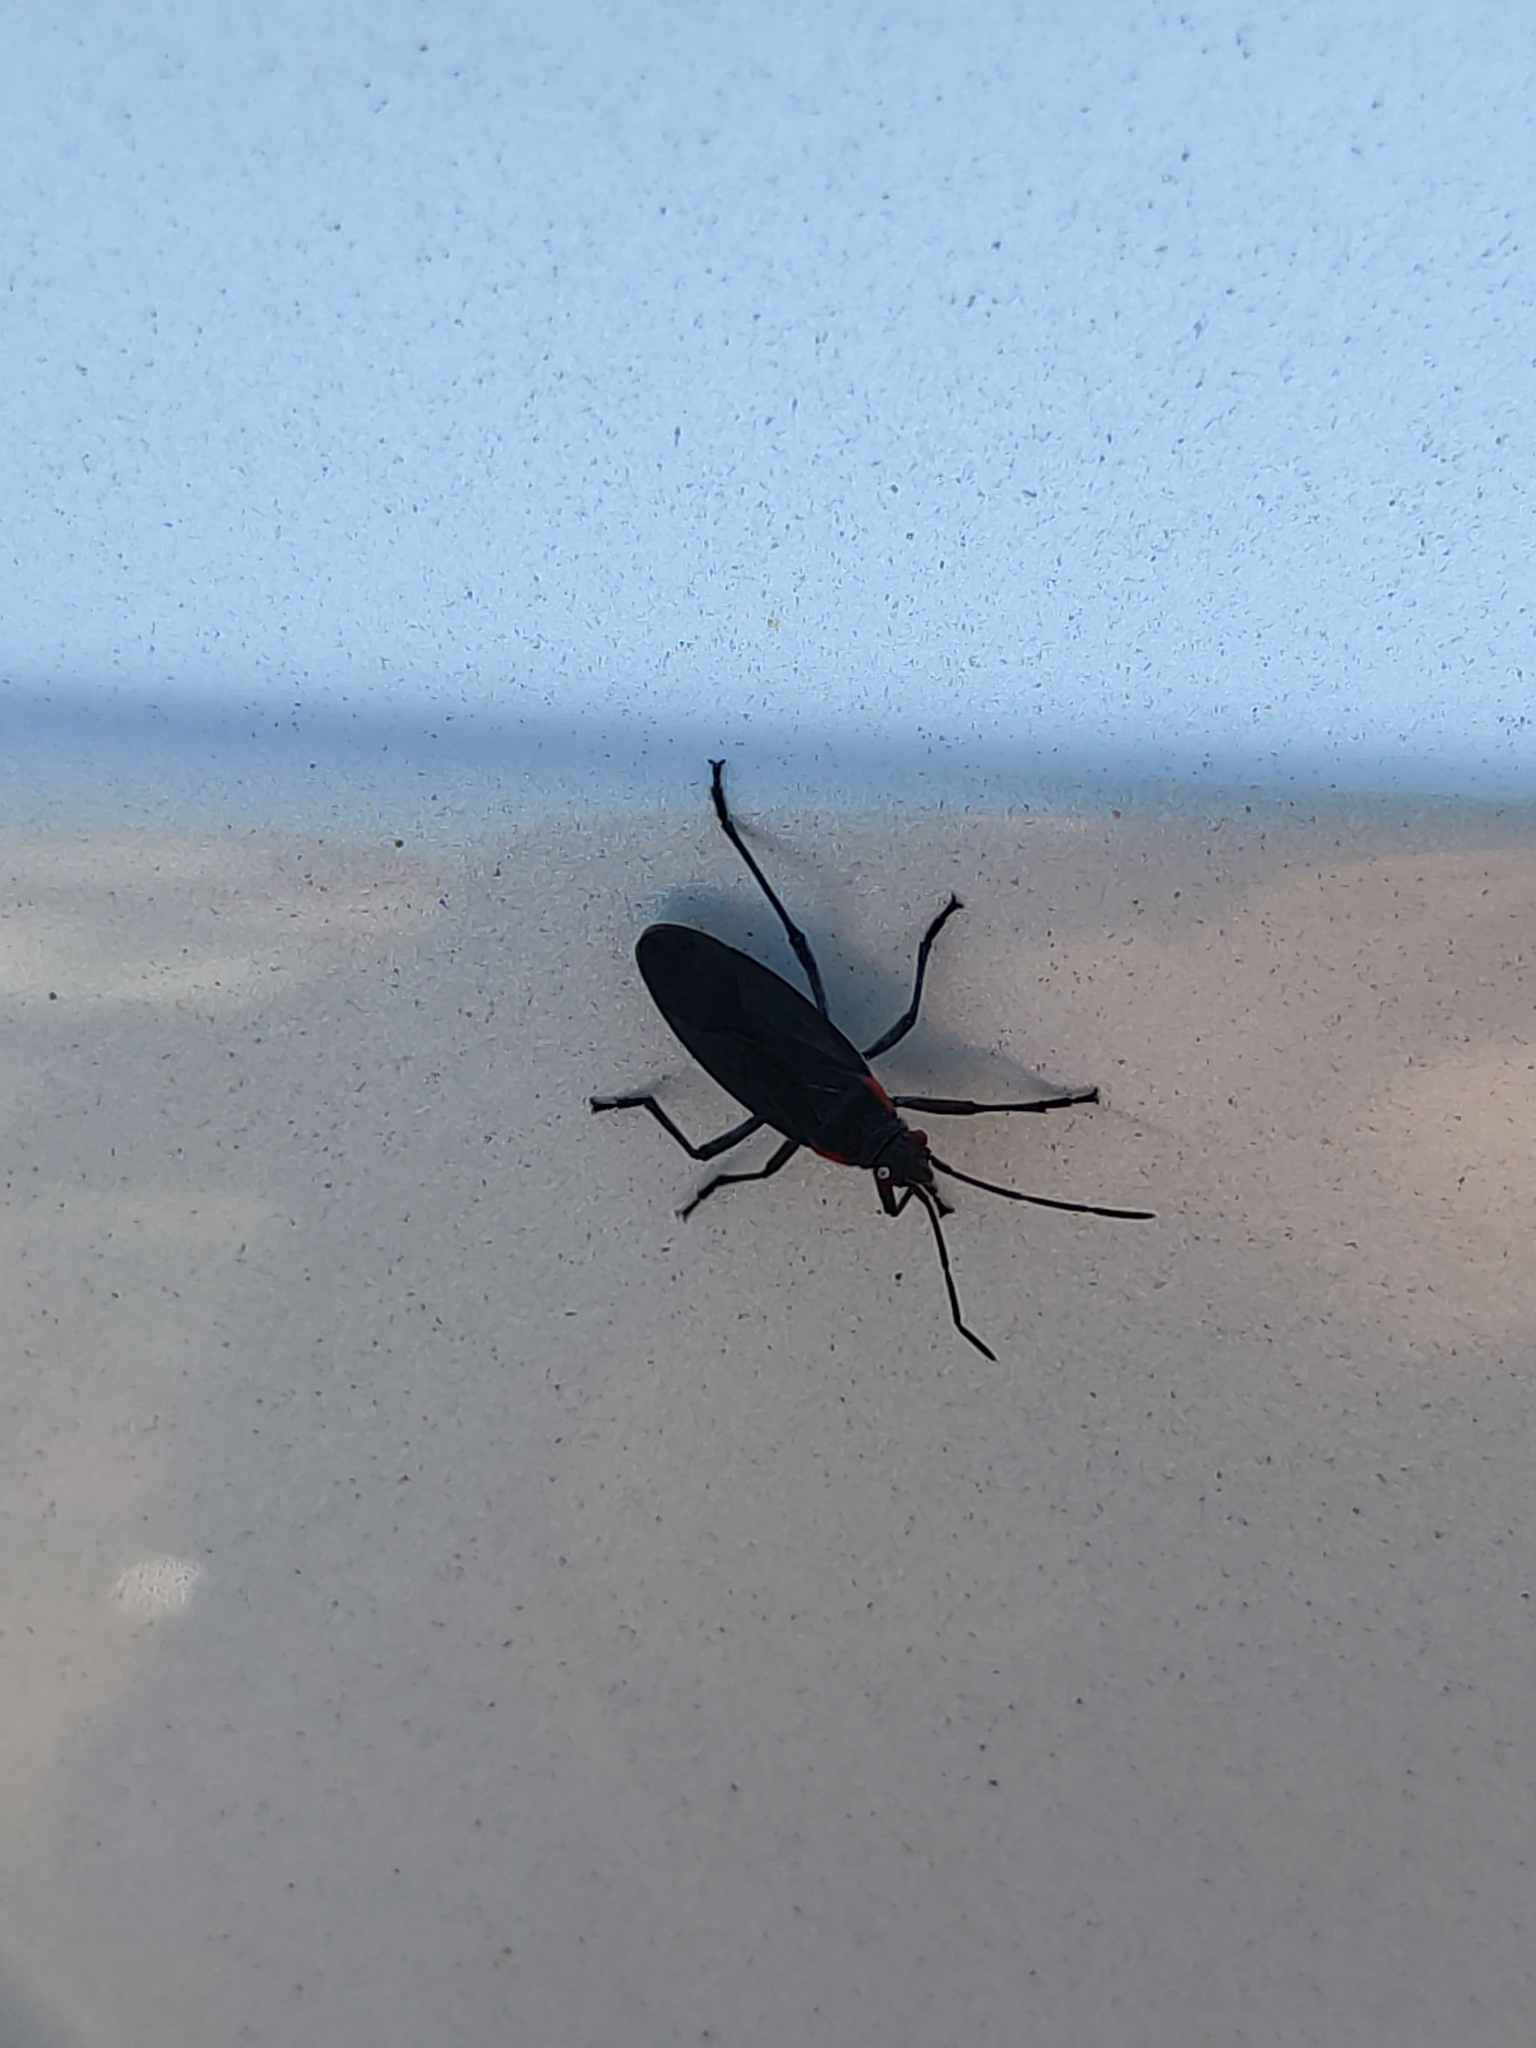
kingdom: Animalia
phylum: Arthropoda
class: Insecta
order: Hemiptera
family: Rhopalidae
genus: Jadera
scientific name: Jadera haematoloma
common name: Red-shouldered bug
